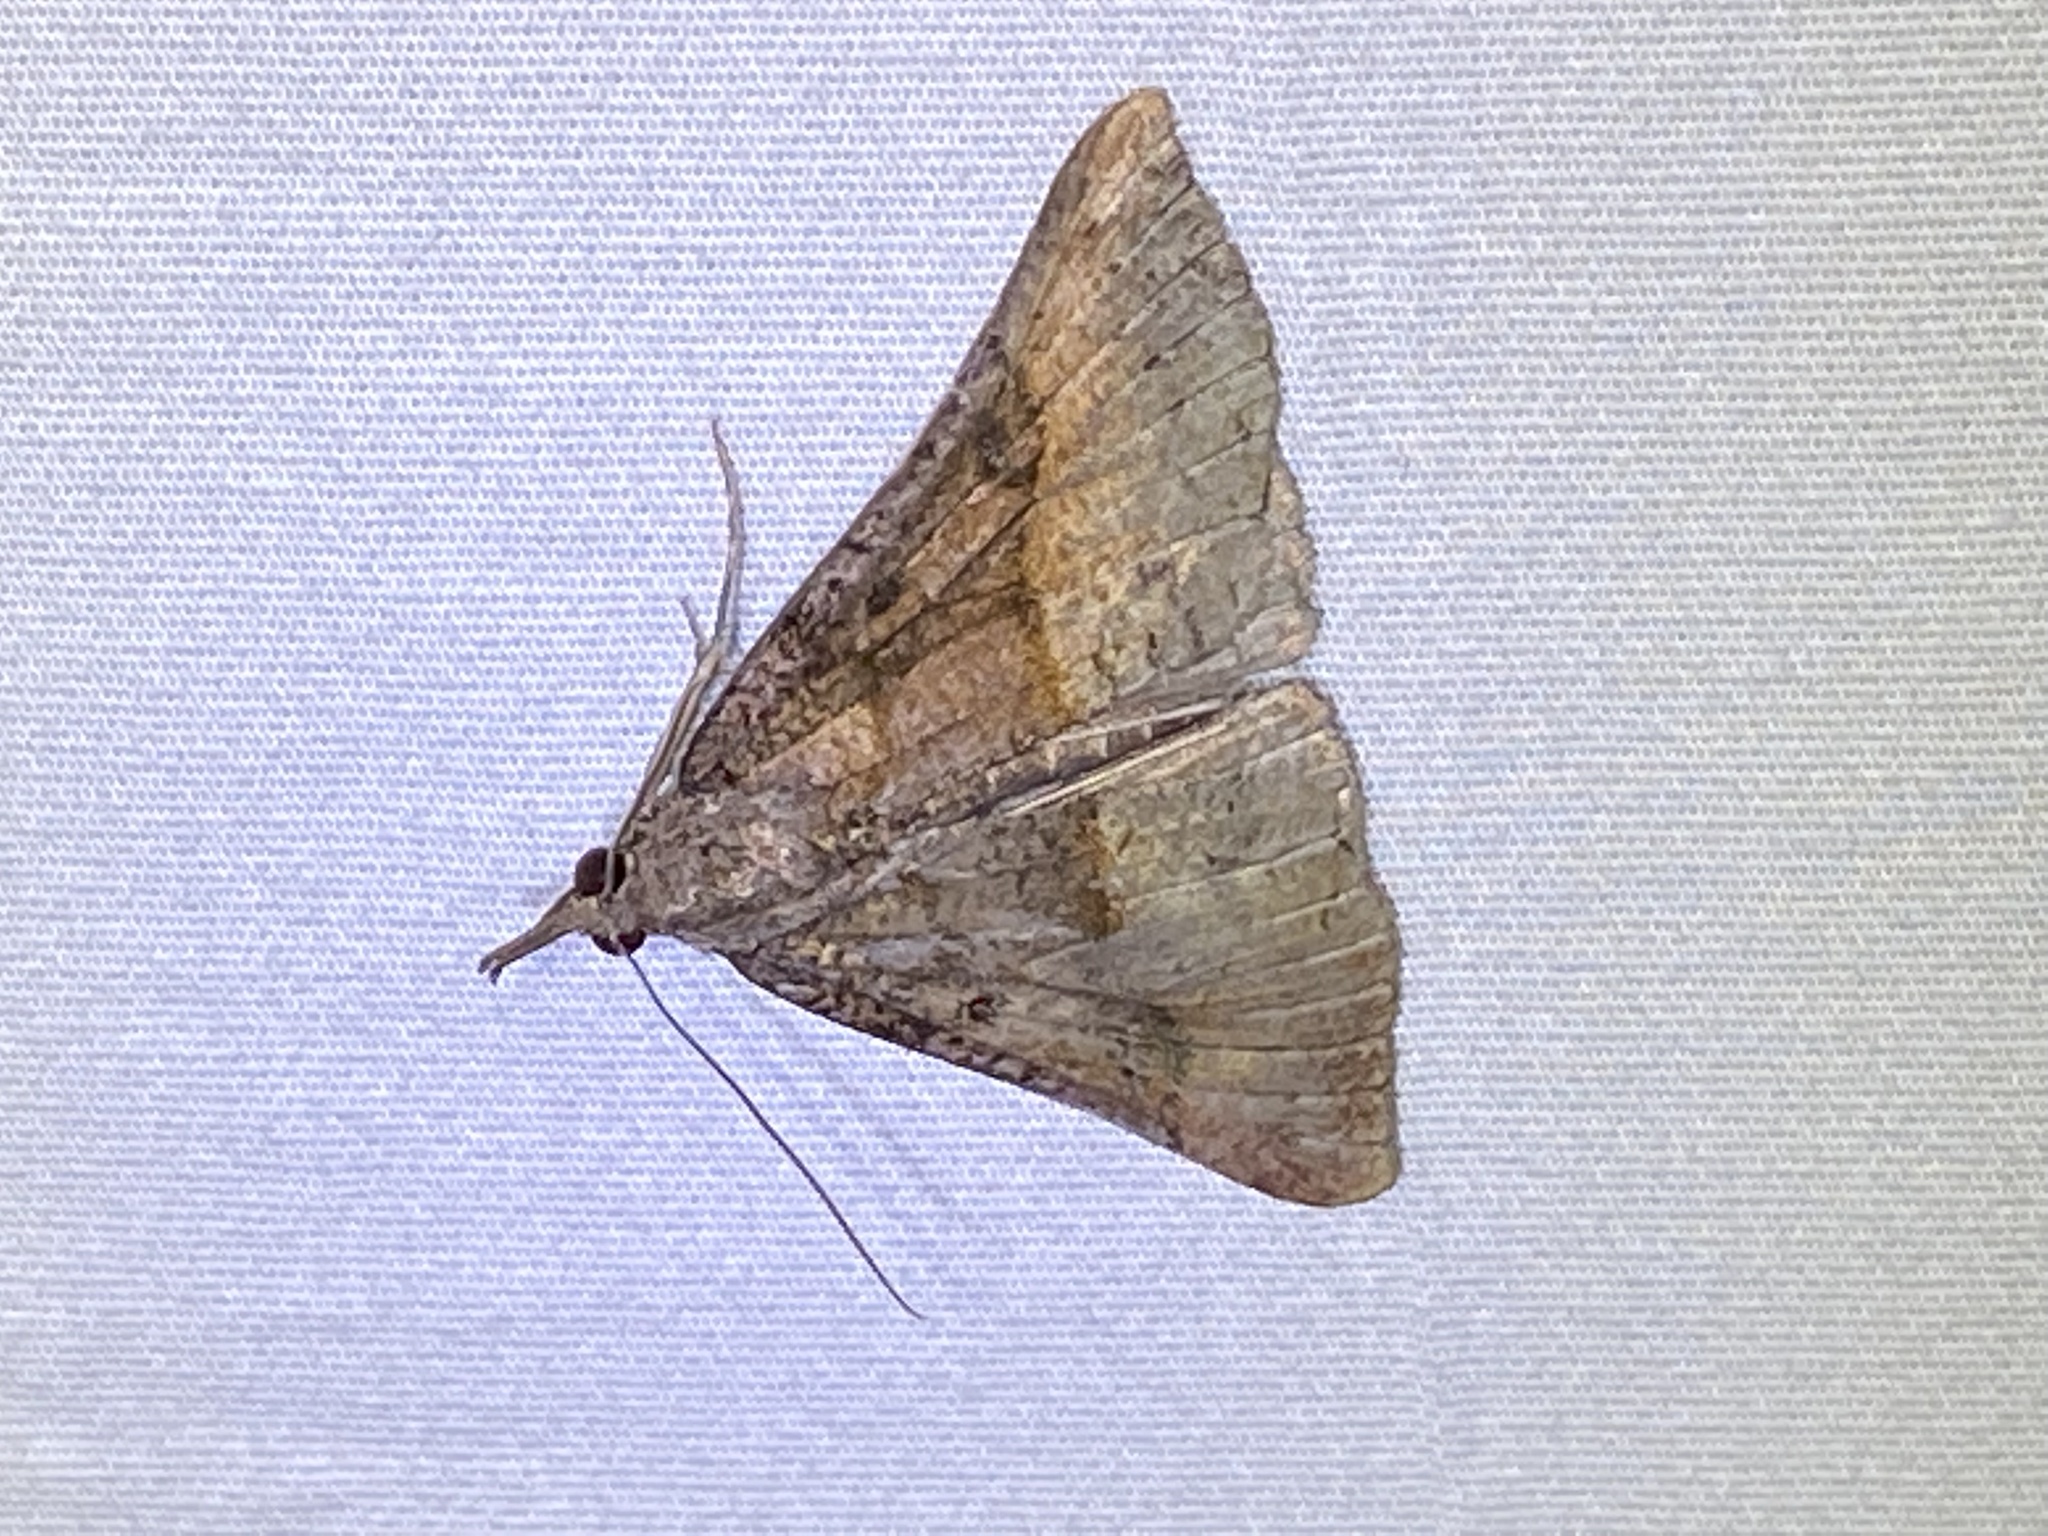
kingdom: Animalia
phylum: Arthropoda
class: Insecta
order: Lepidoptera
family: Erebidae
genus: Hypena
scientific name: Hypena edictalis
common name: Large snout
